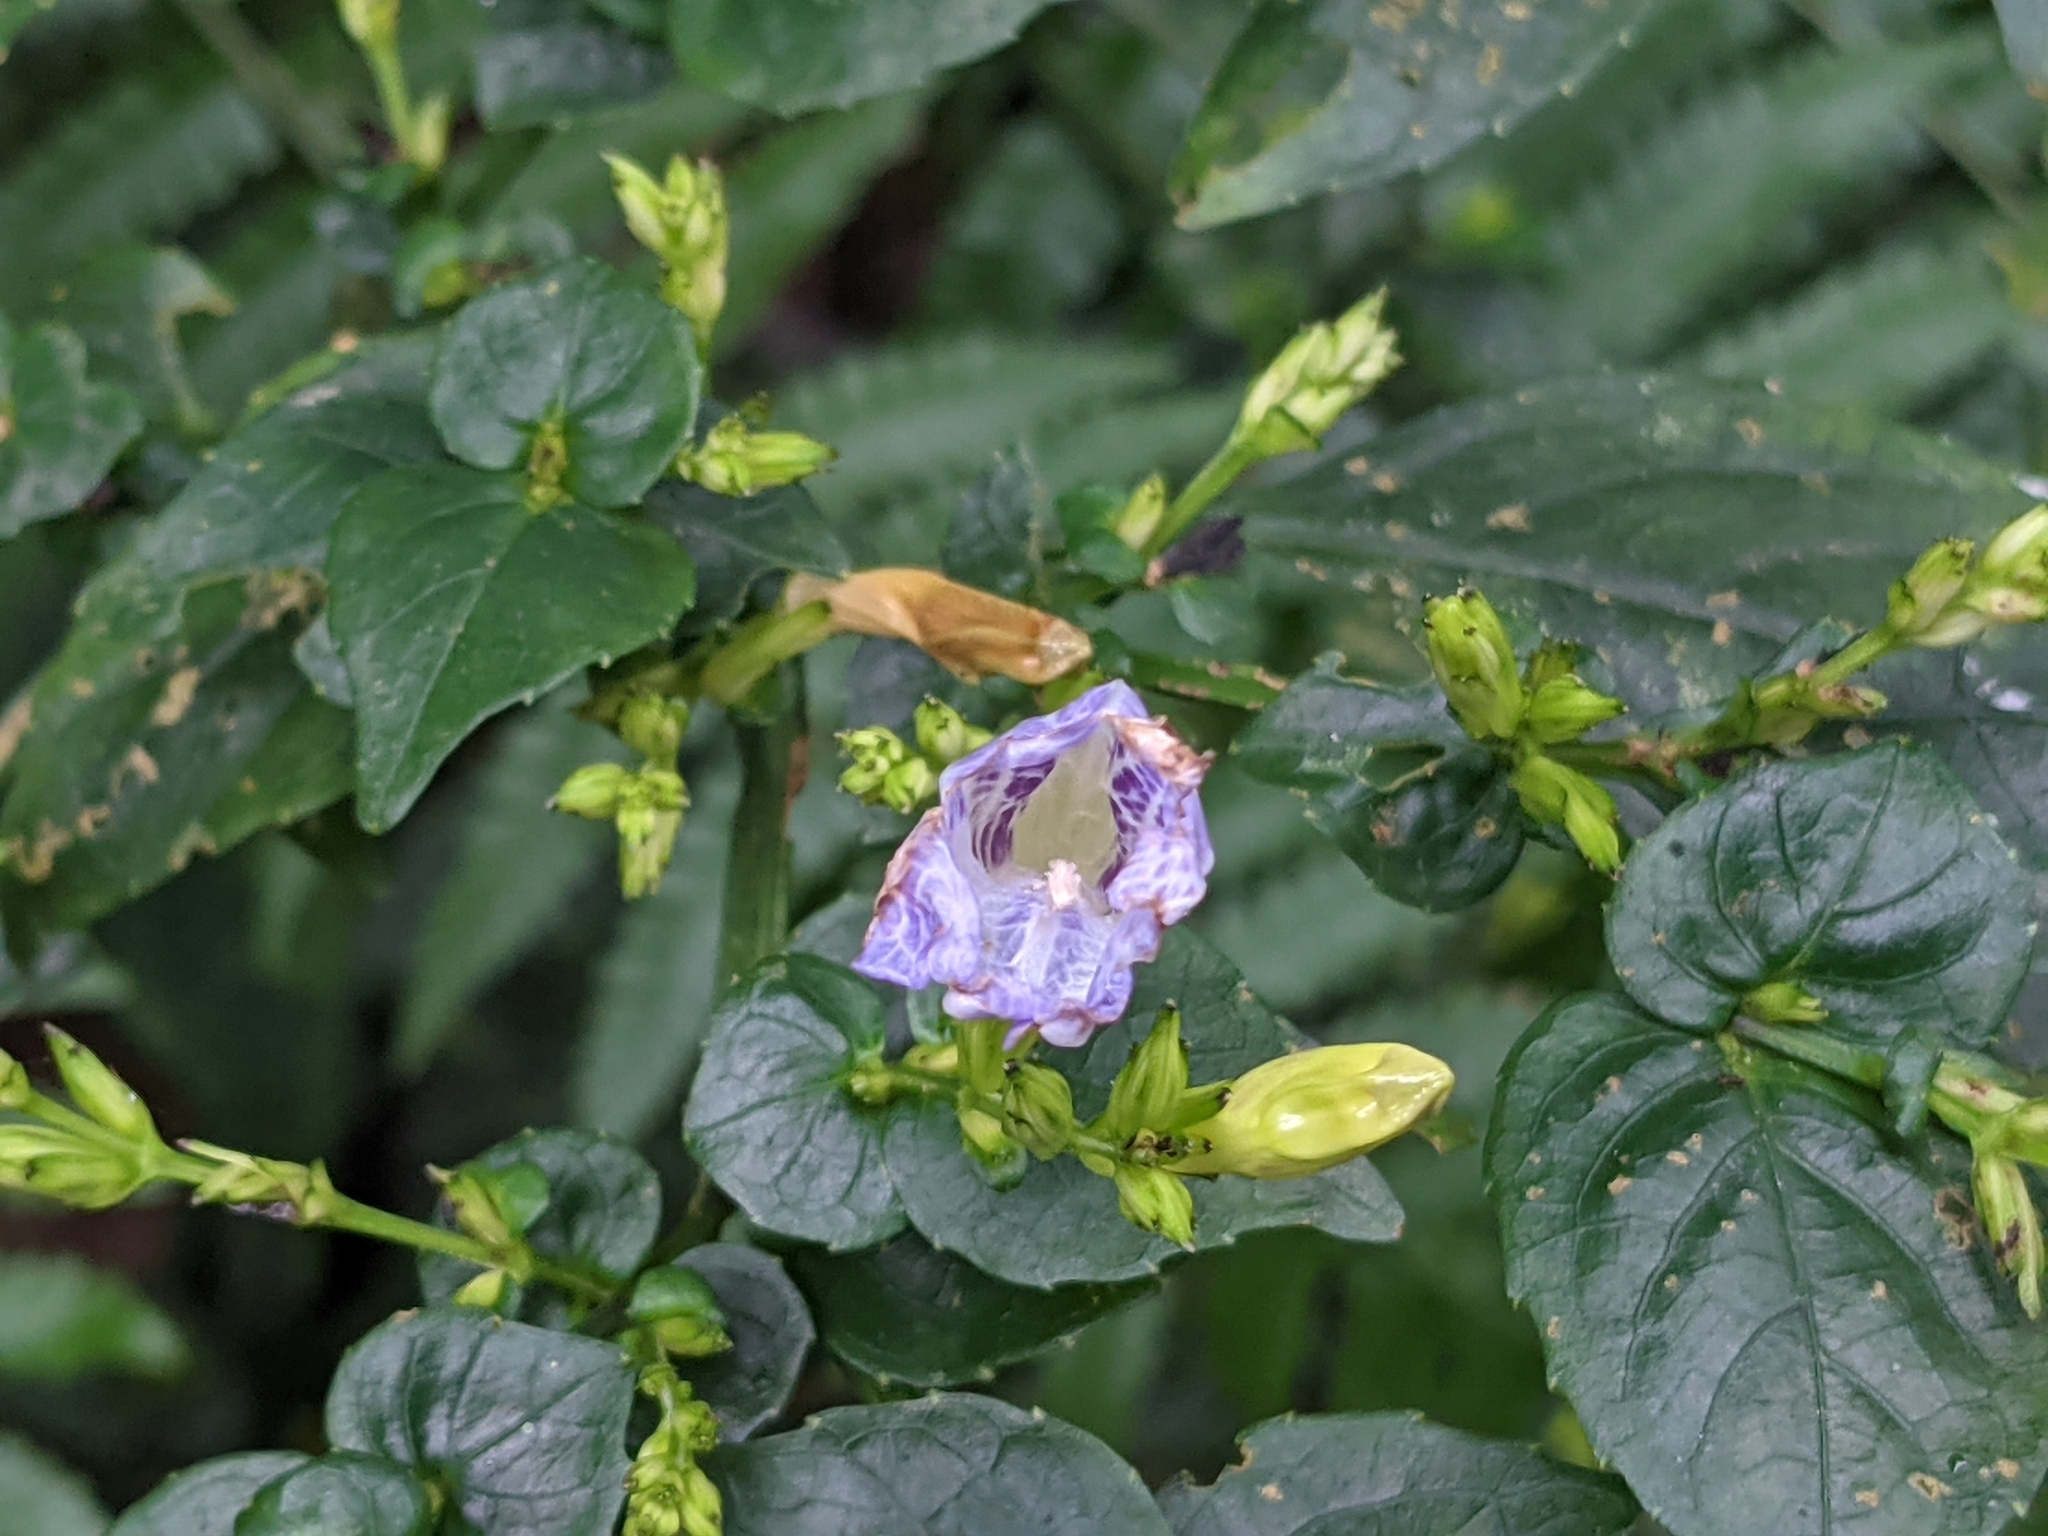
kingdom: Plantae
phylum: Tracheophyta
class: Magnoliopsida
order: Lamiales
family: Acanthaceae
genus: Strobilanthes
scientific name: Strobilanthes flexicaulis
